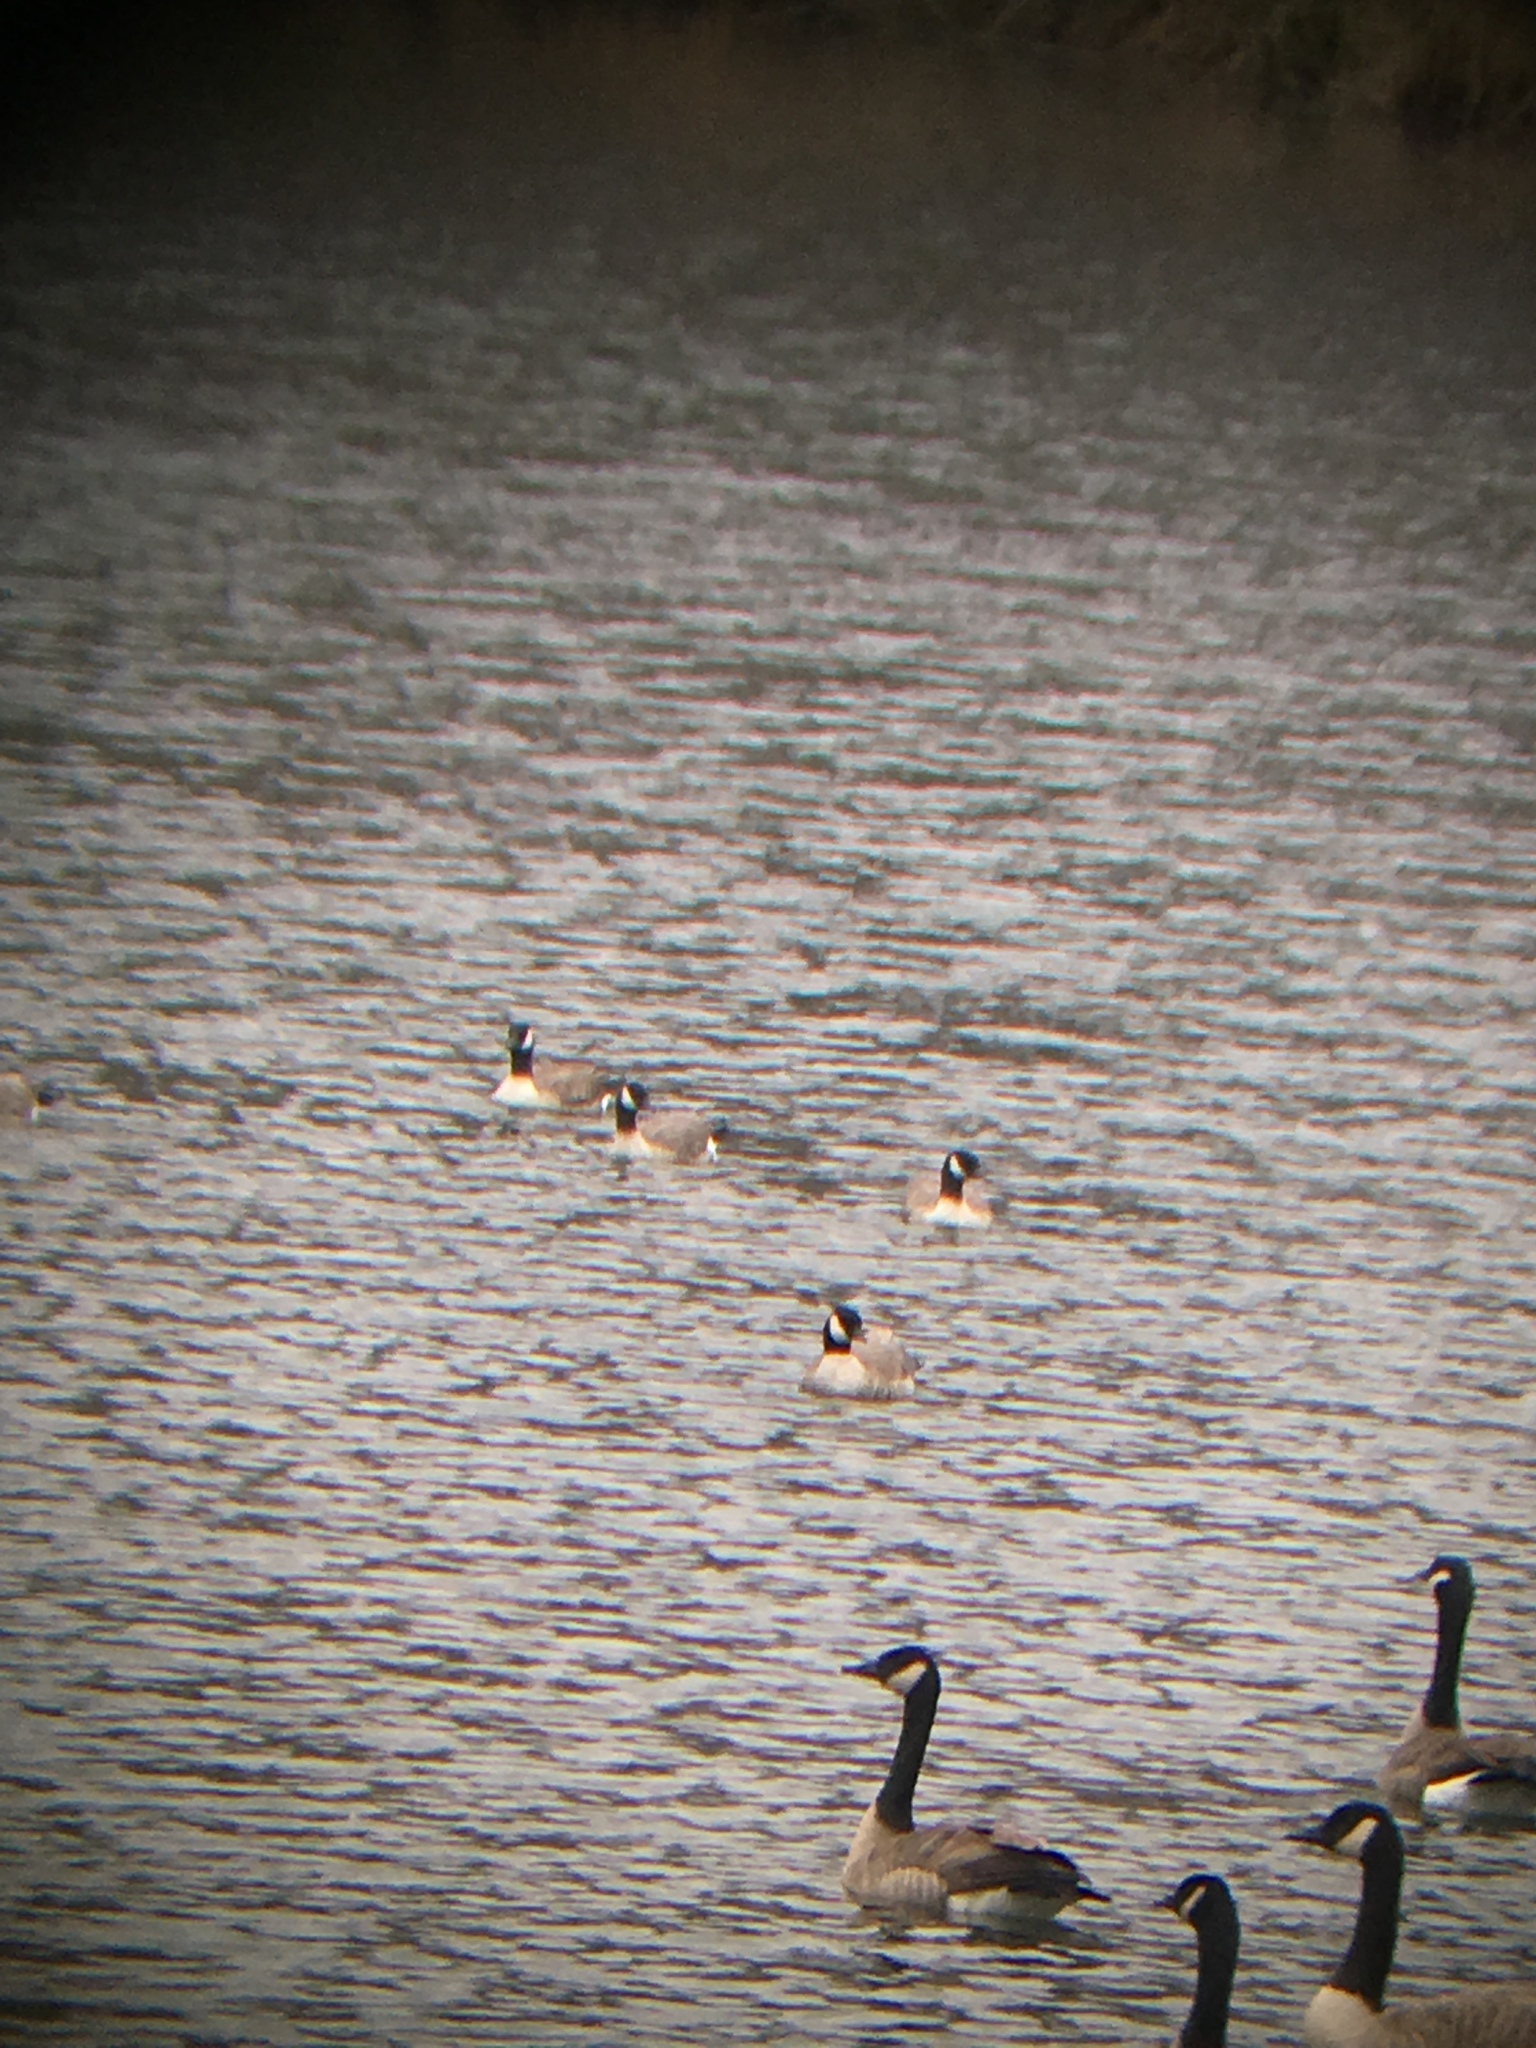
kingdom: Animalia
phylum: Chordata
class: Aves
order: Anseriformes
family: Anatidae
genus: Branta
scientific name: Branta hutchinsii
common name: Cackling goose
